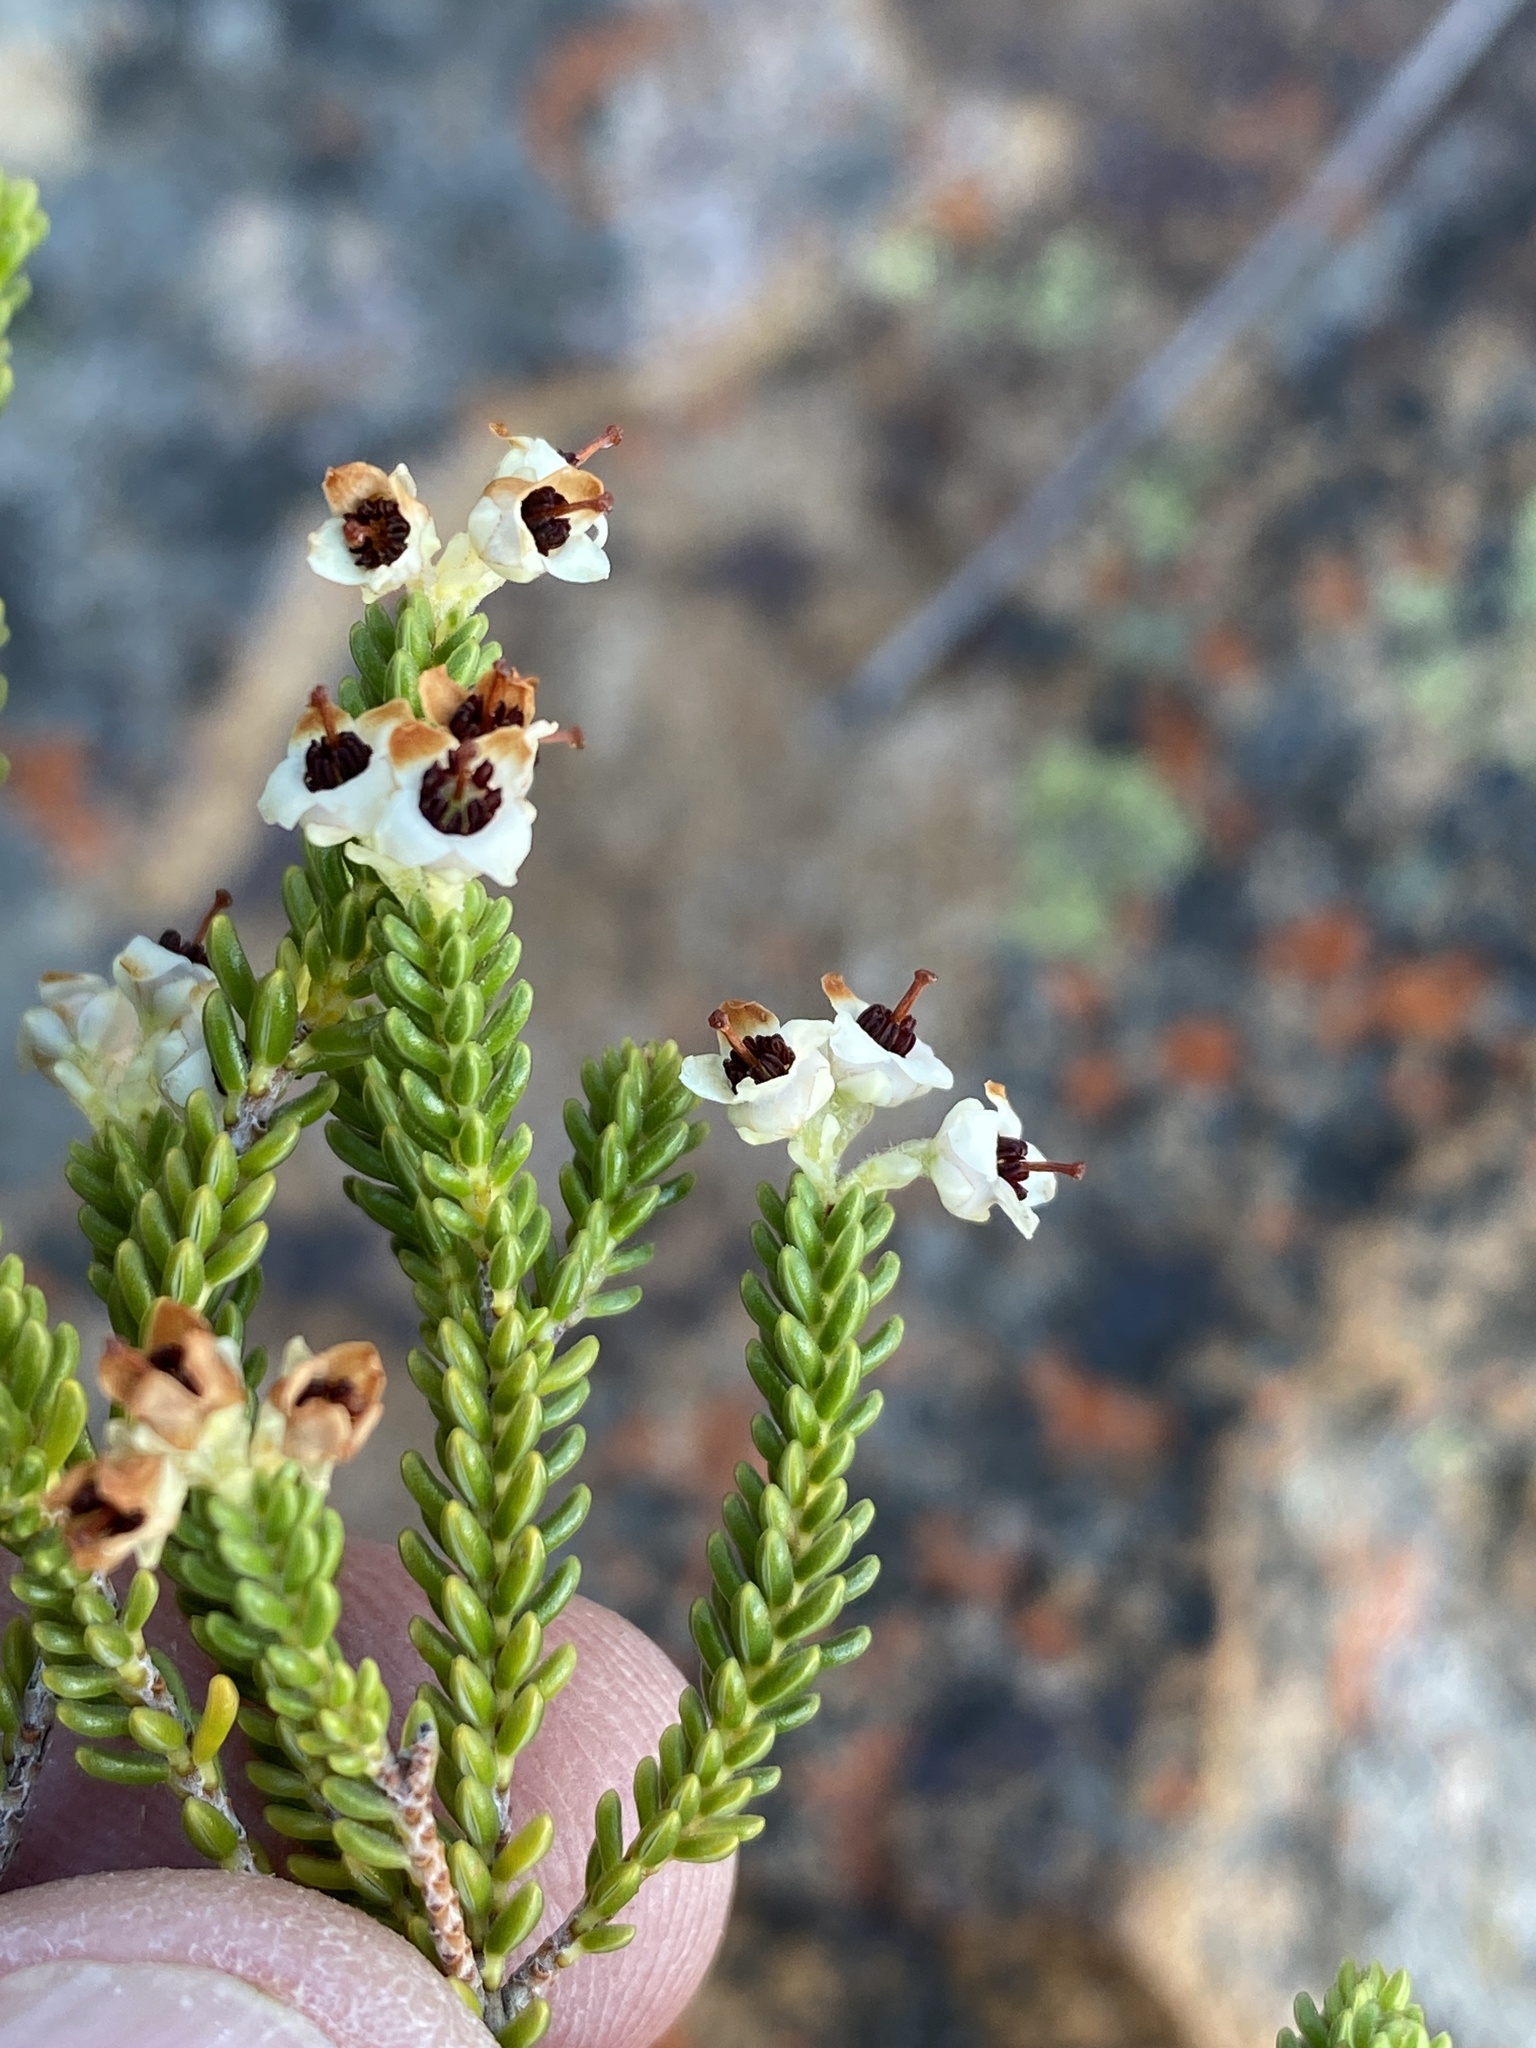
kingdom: Plantae
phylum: Tracheophyta
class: Magnoliopsida
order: Ericales
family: Ericaceae
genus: Erica
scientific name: Erica calycina
